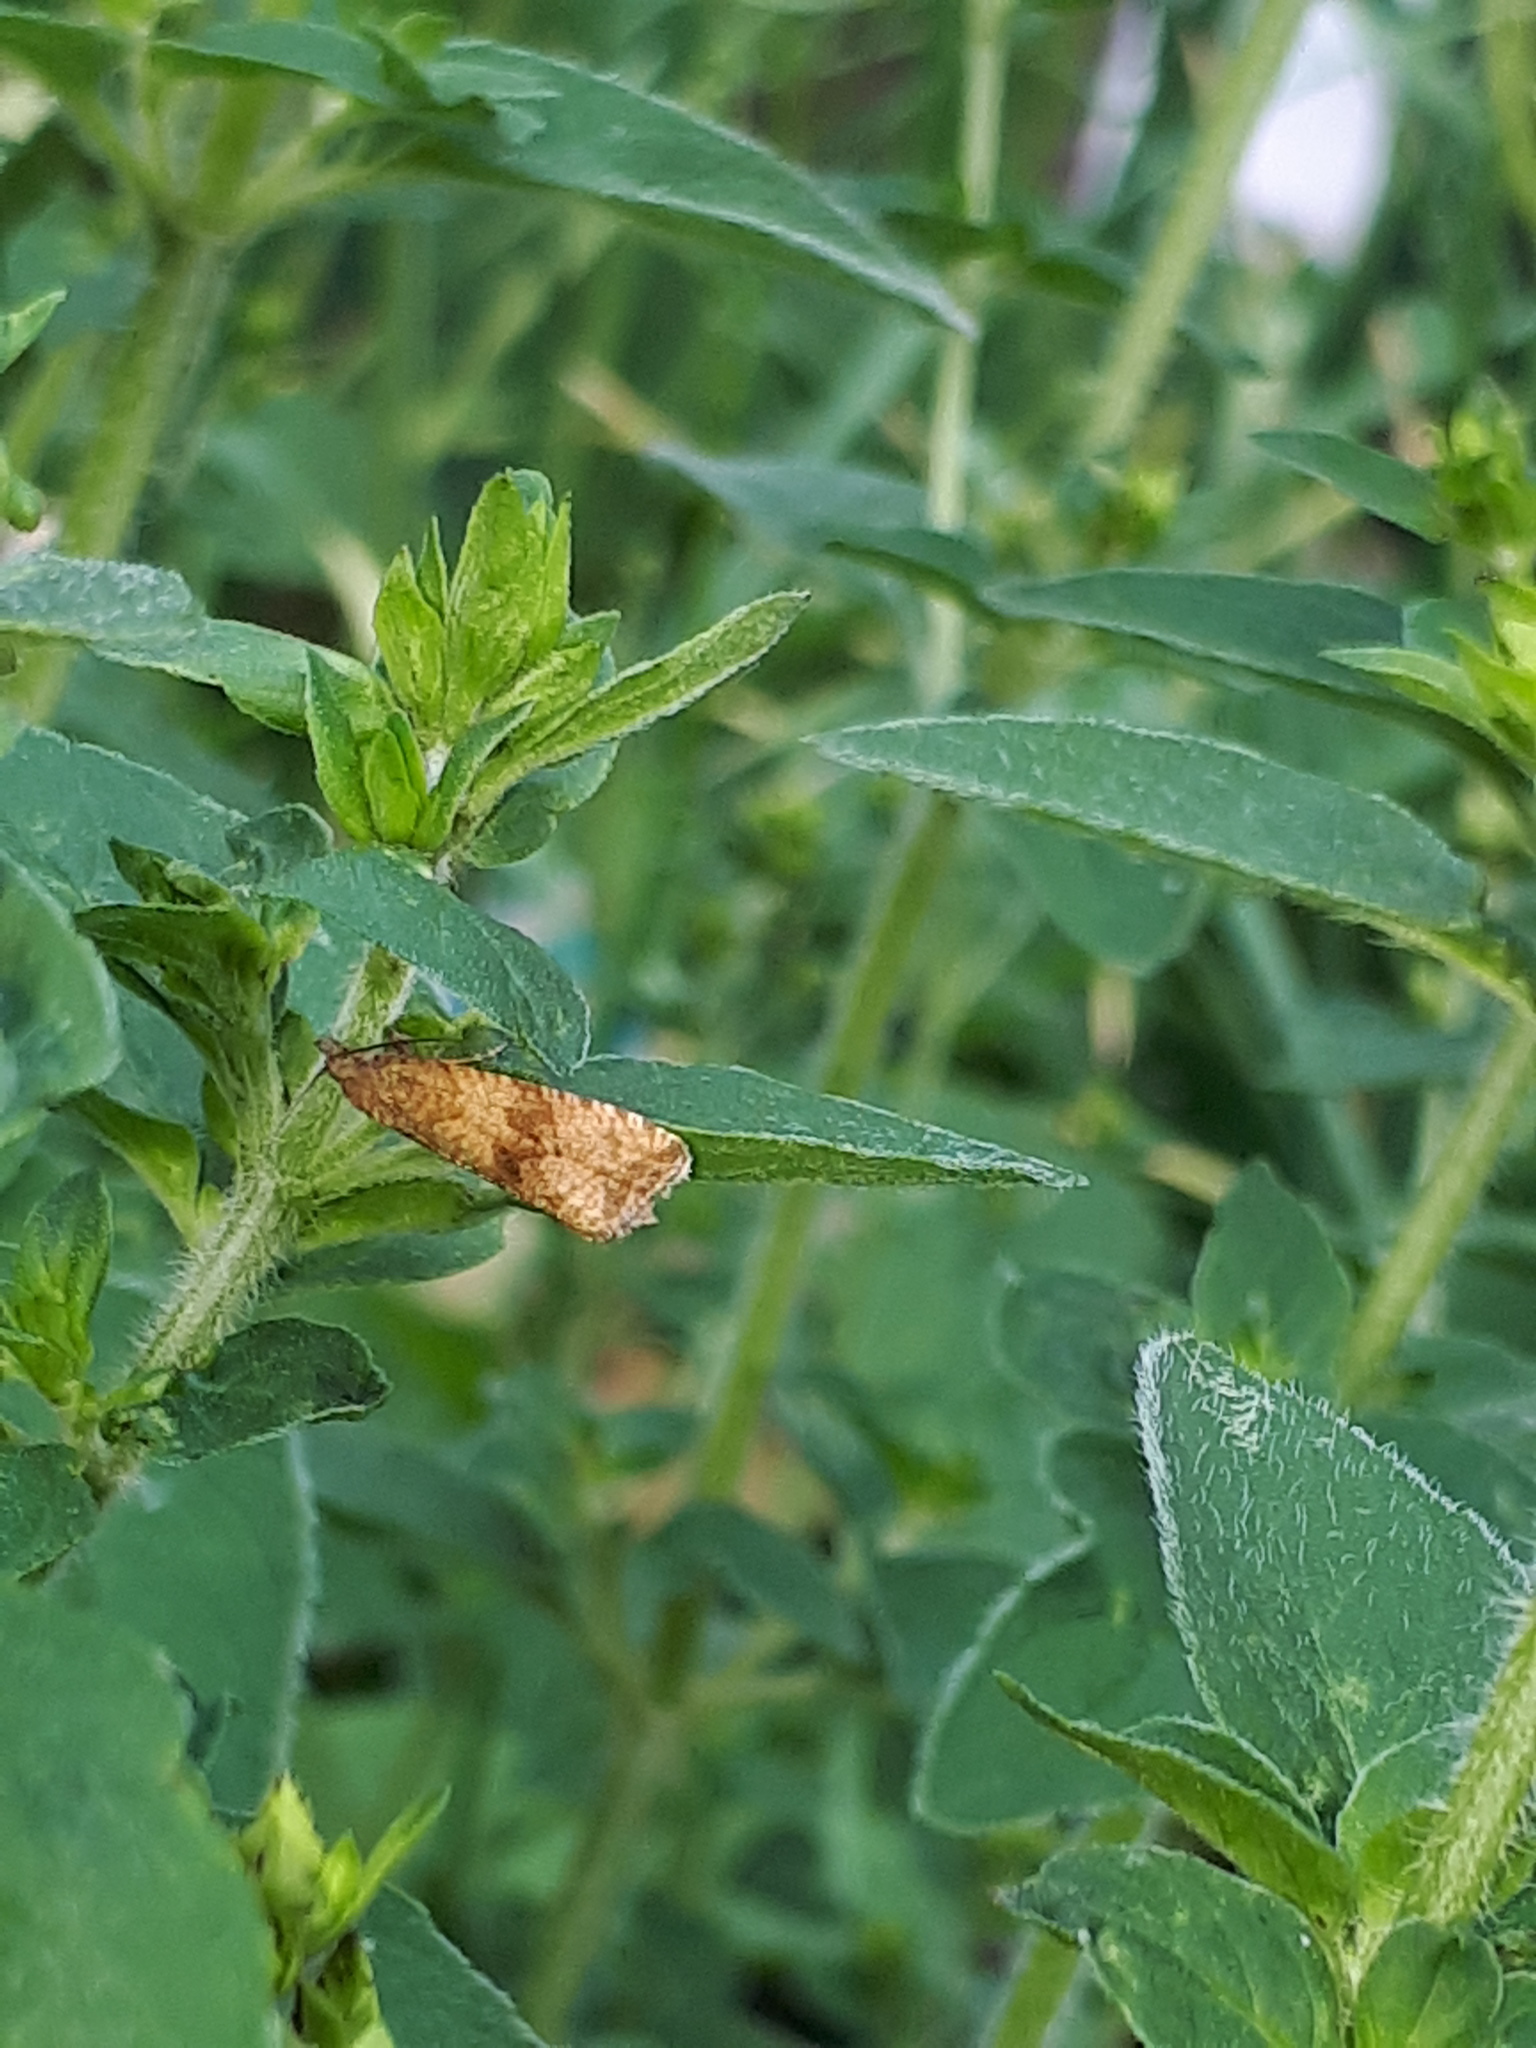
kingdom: Animalia
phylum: Arthropoda
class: Insecta
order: Lepidoptera
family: Tortricidae
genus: Celypha
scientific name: Celypha striana
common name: Barred marble
